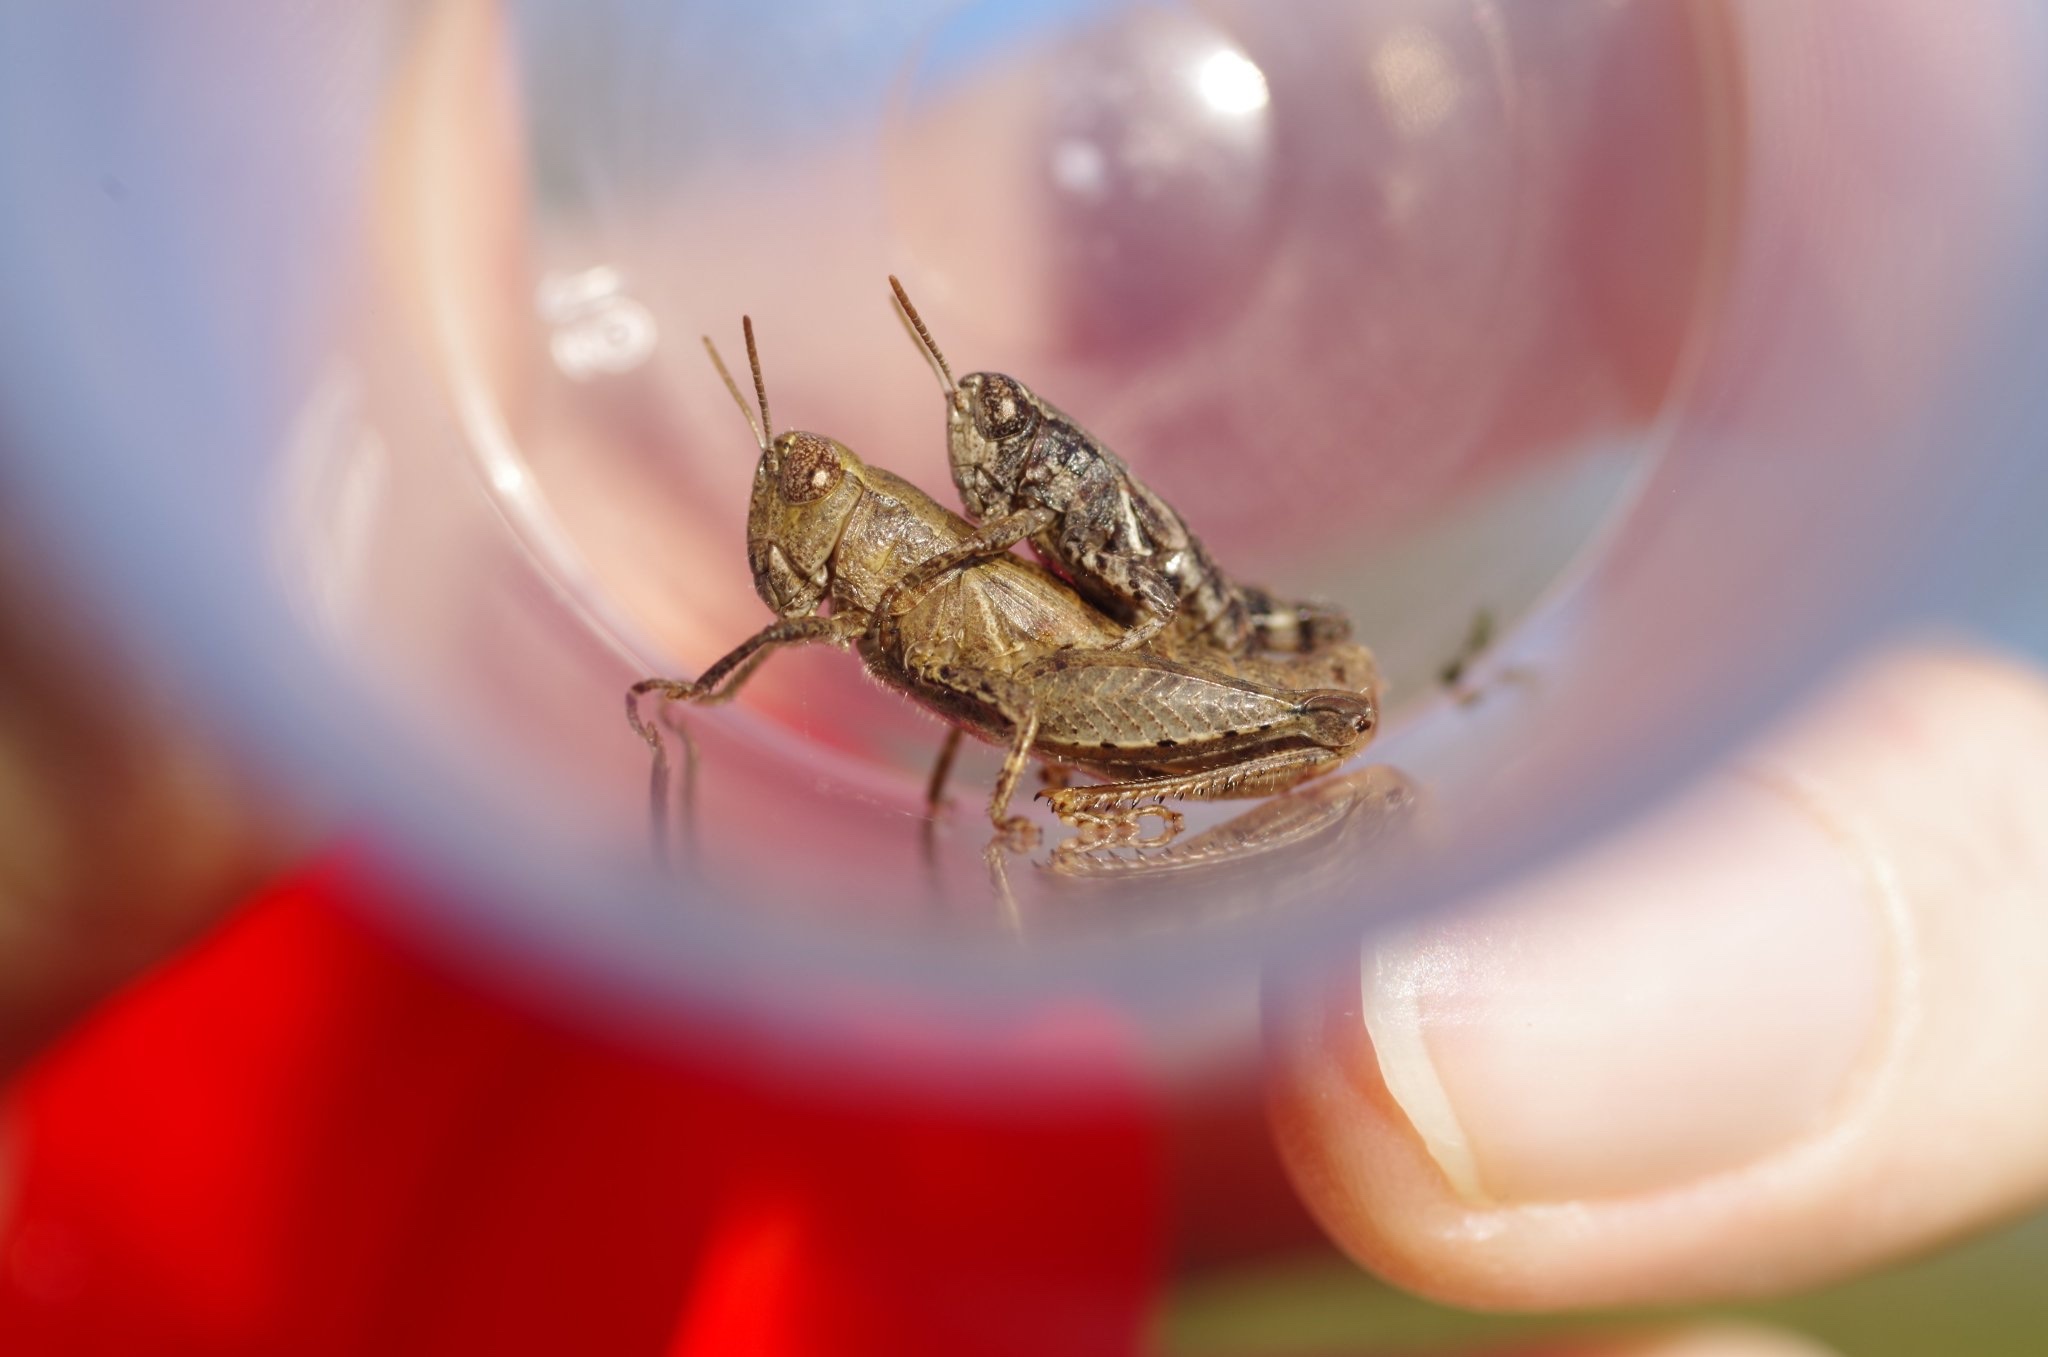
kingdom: Animalia
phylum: Arthropoda
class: Insecta
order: Orthoptera
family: Acrididae
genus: Pezotettix
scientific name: Pezotettix giornae
